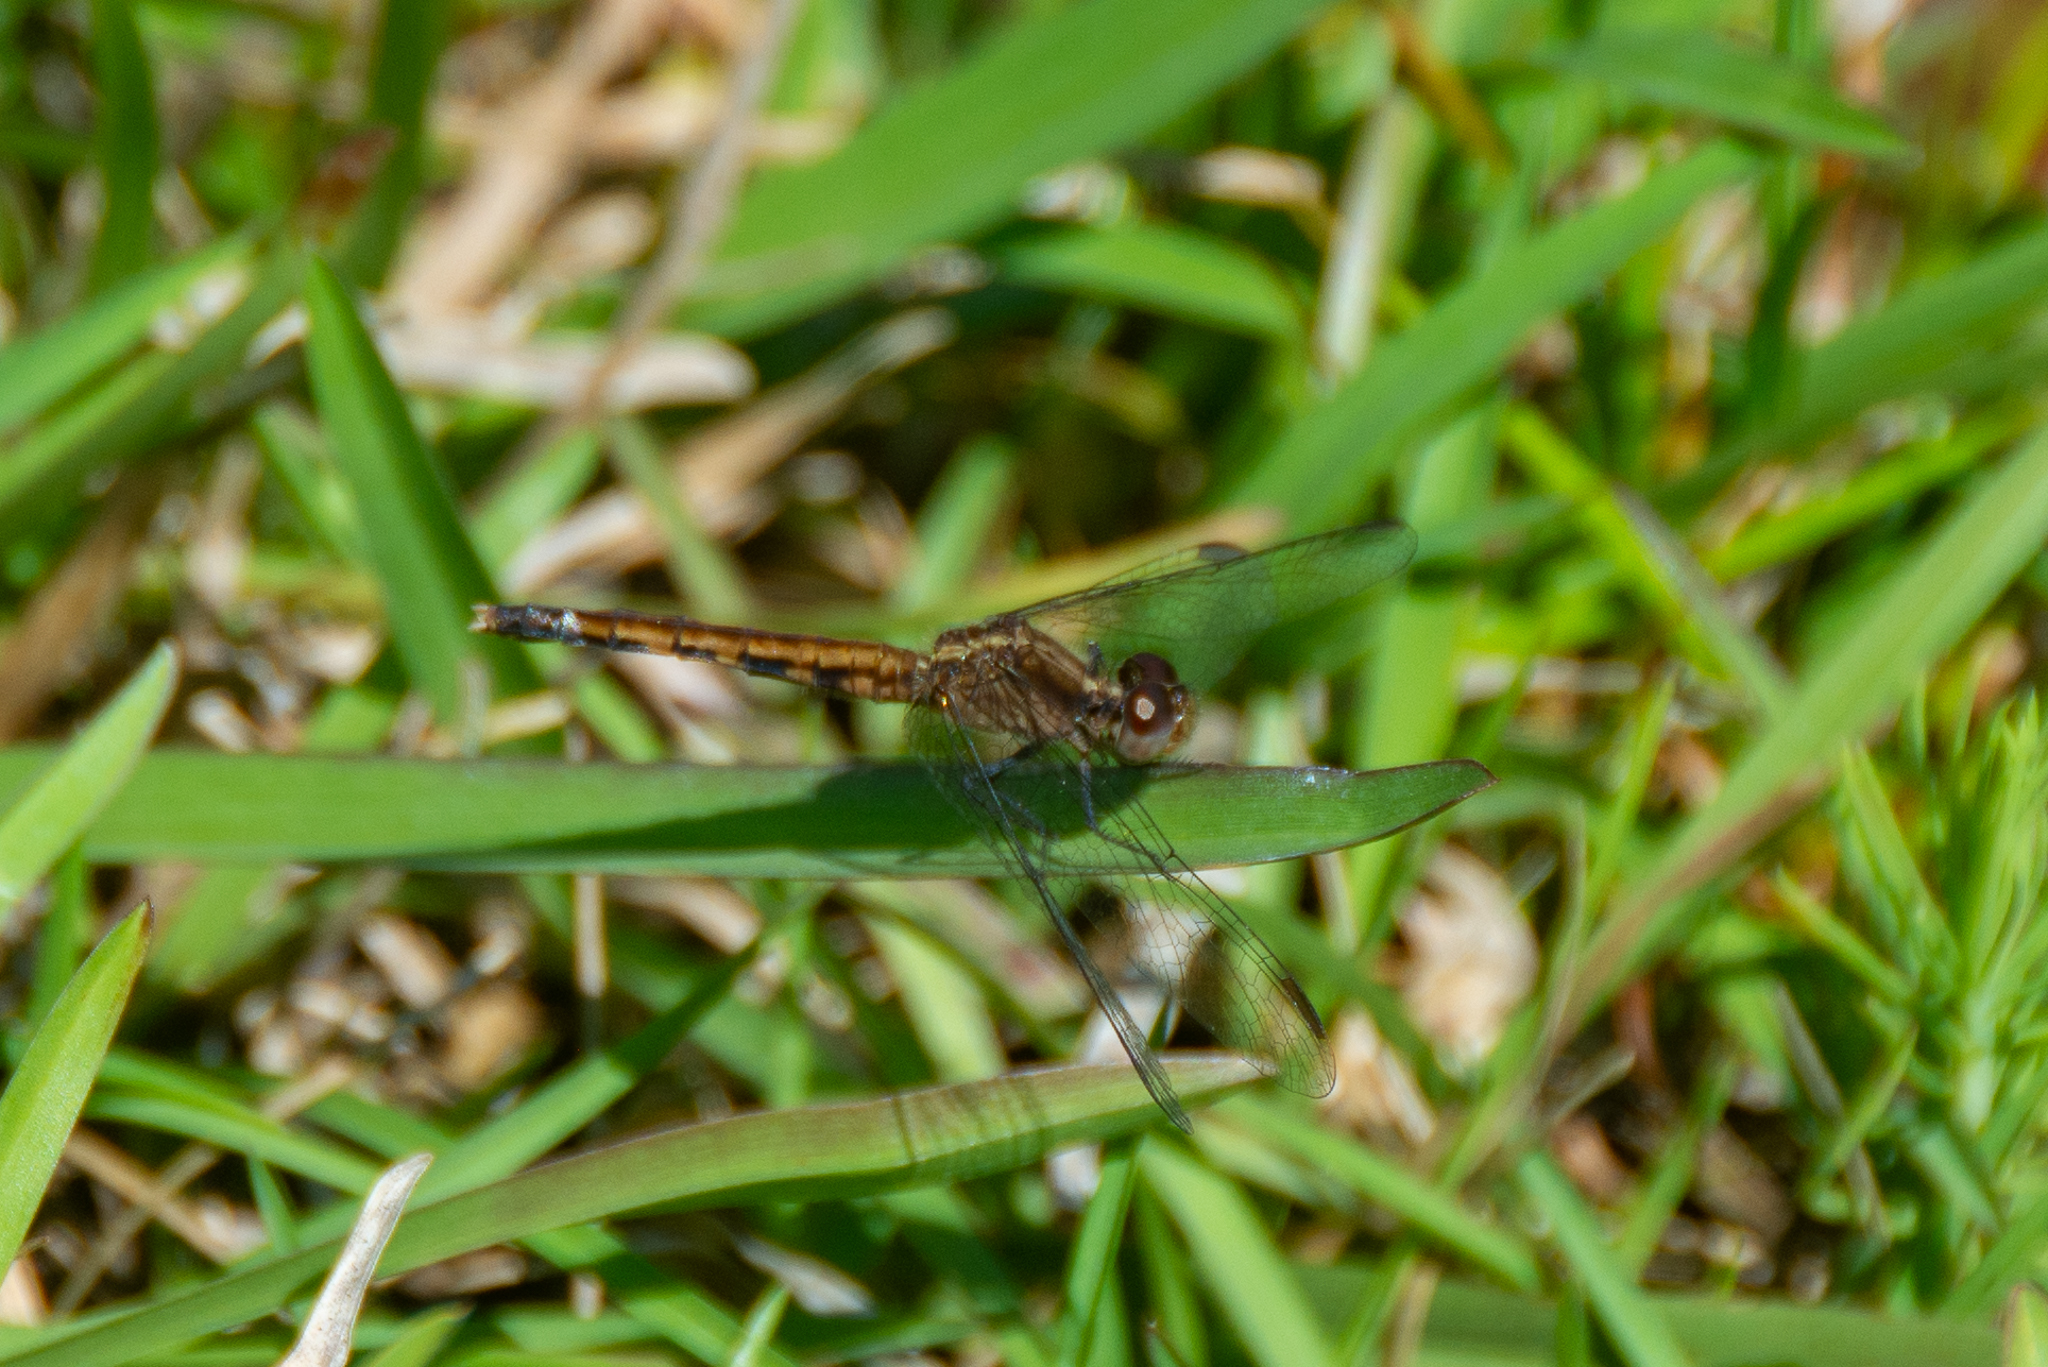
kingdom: Animalia
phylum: Arthropoda
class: Insecta
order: Odonata
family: Libellulidae
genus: Erythrodiplax
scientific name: Erythrodiplax minuscula
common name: Little blue dragonlet
